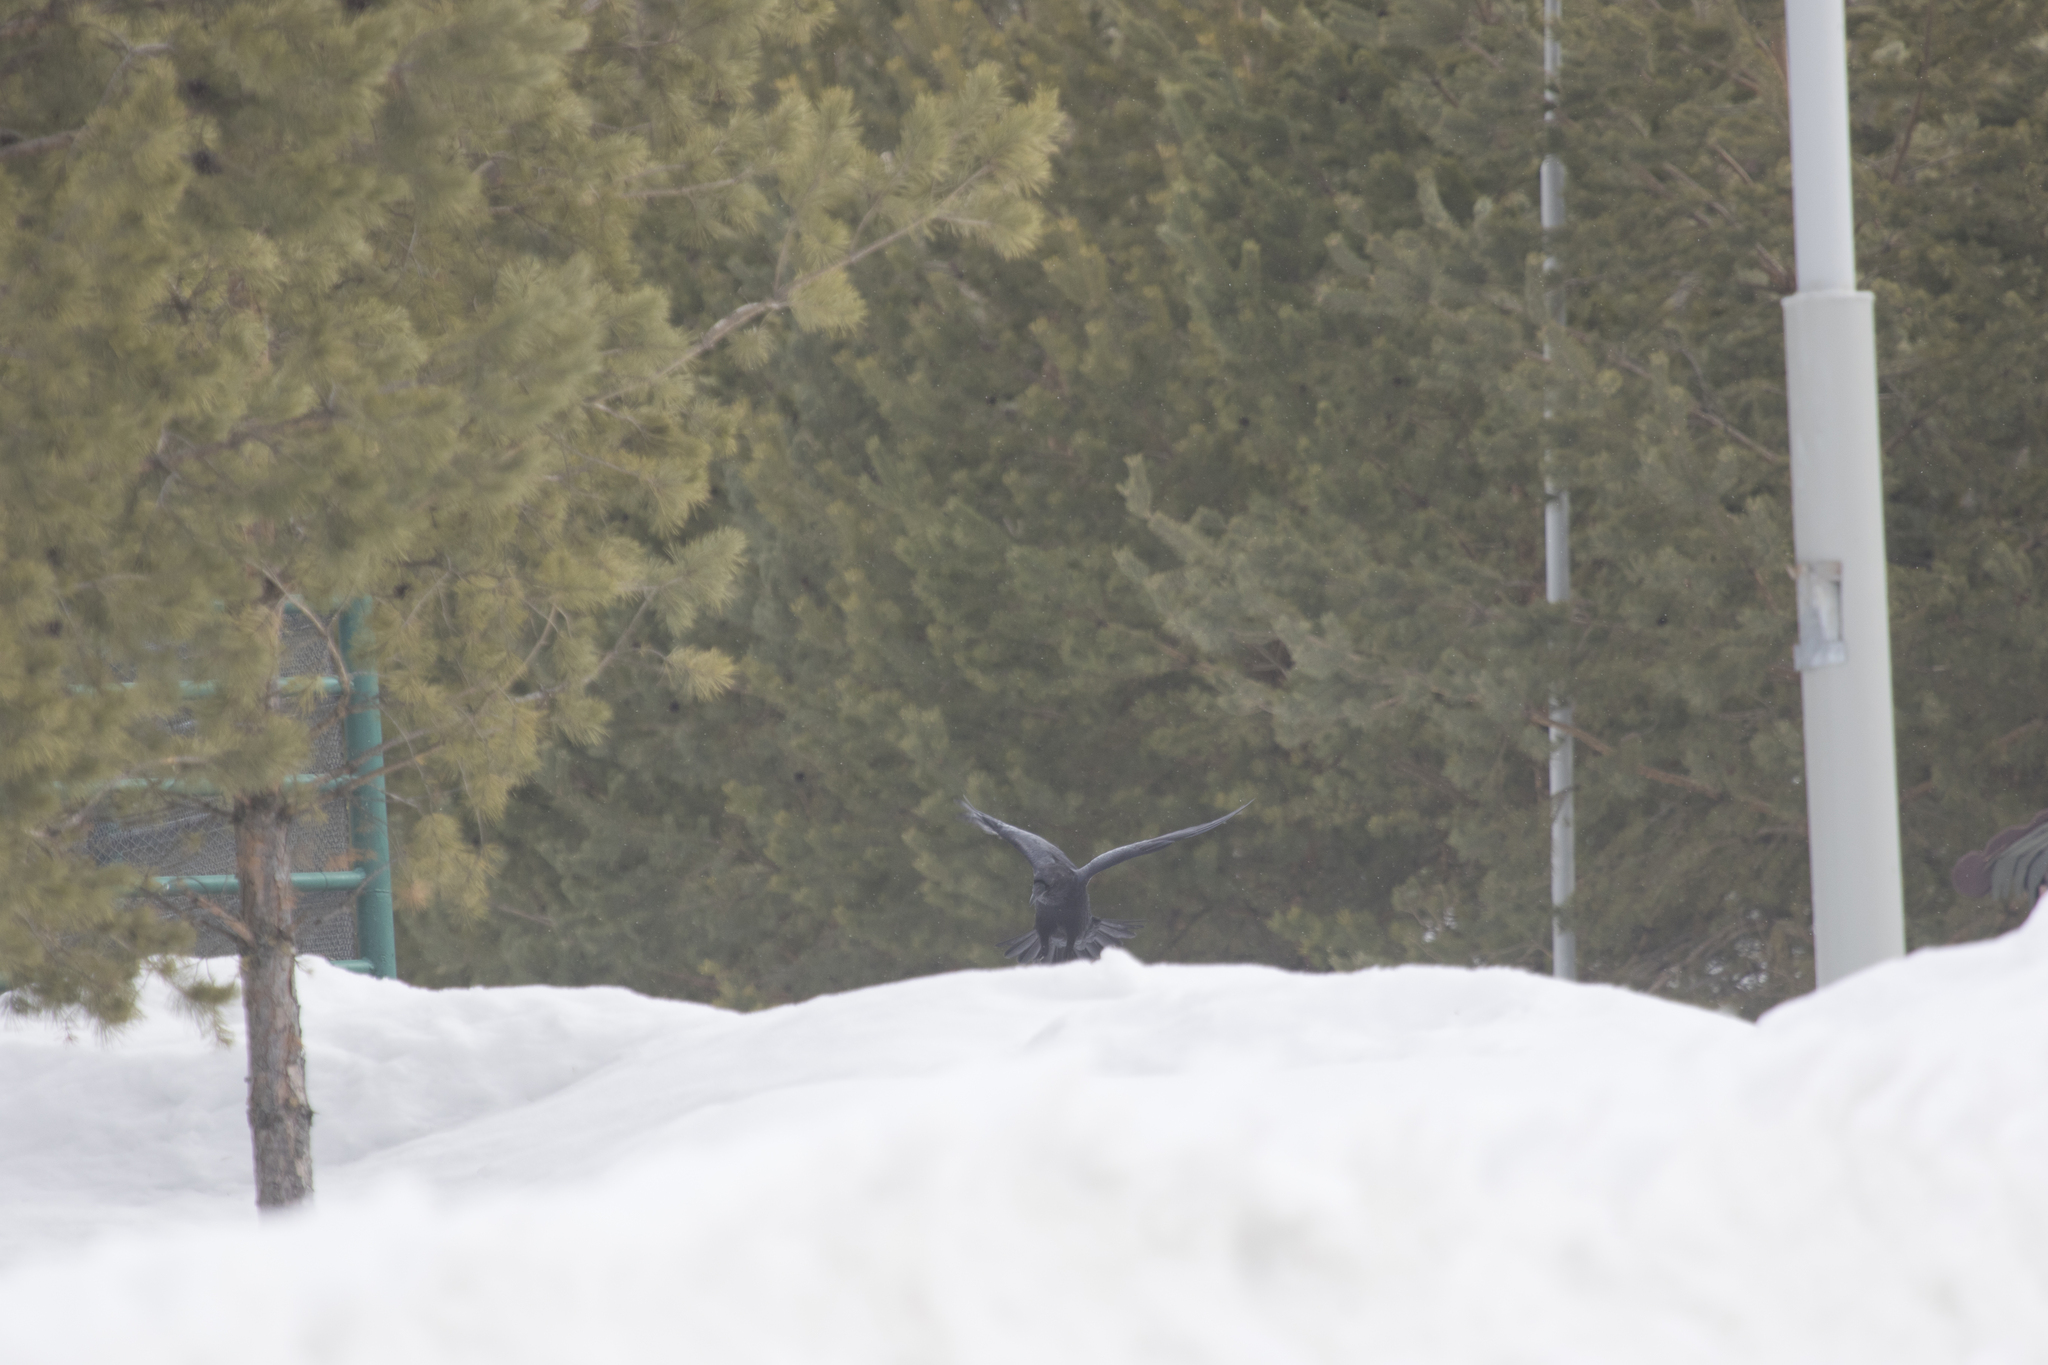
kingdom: Animalia
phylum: Chordata
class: Aves
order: Passeriformes
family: Corvidae
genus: Corvus
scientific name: Corvus corax
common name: Common raven
